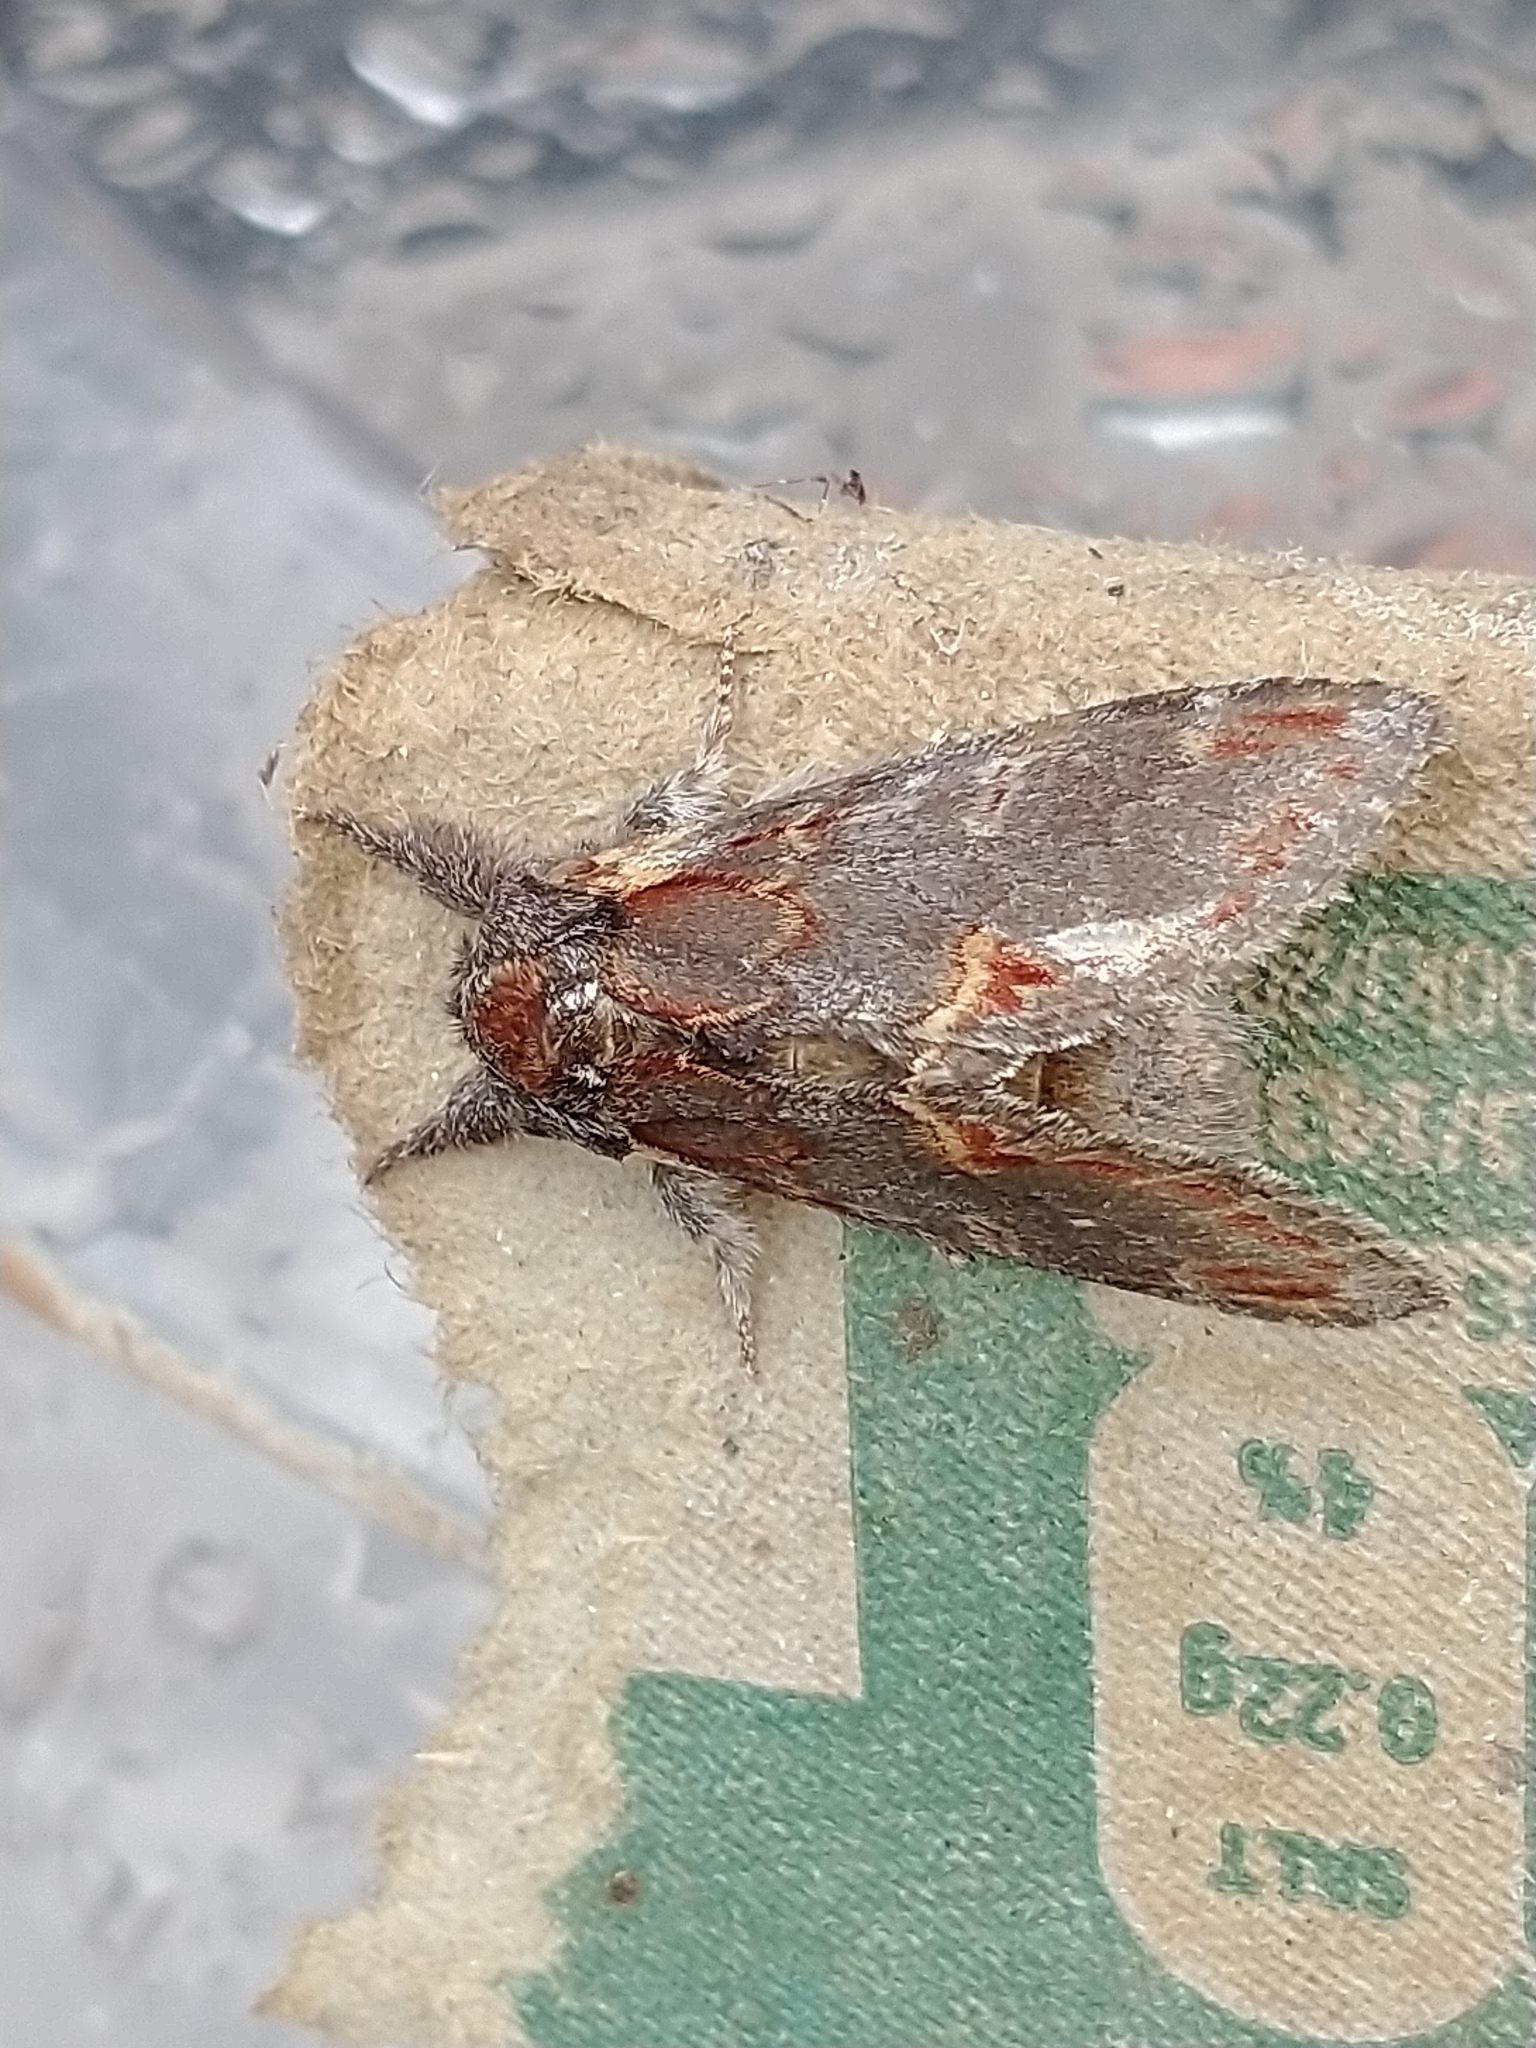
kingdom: Animalia
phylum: Arthropoda
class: Insecta
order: Lepidoptera
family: Notodontidae
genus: Notodonta
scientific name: Notodonta dromedarius
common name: Iron prominent
